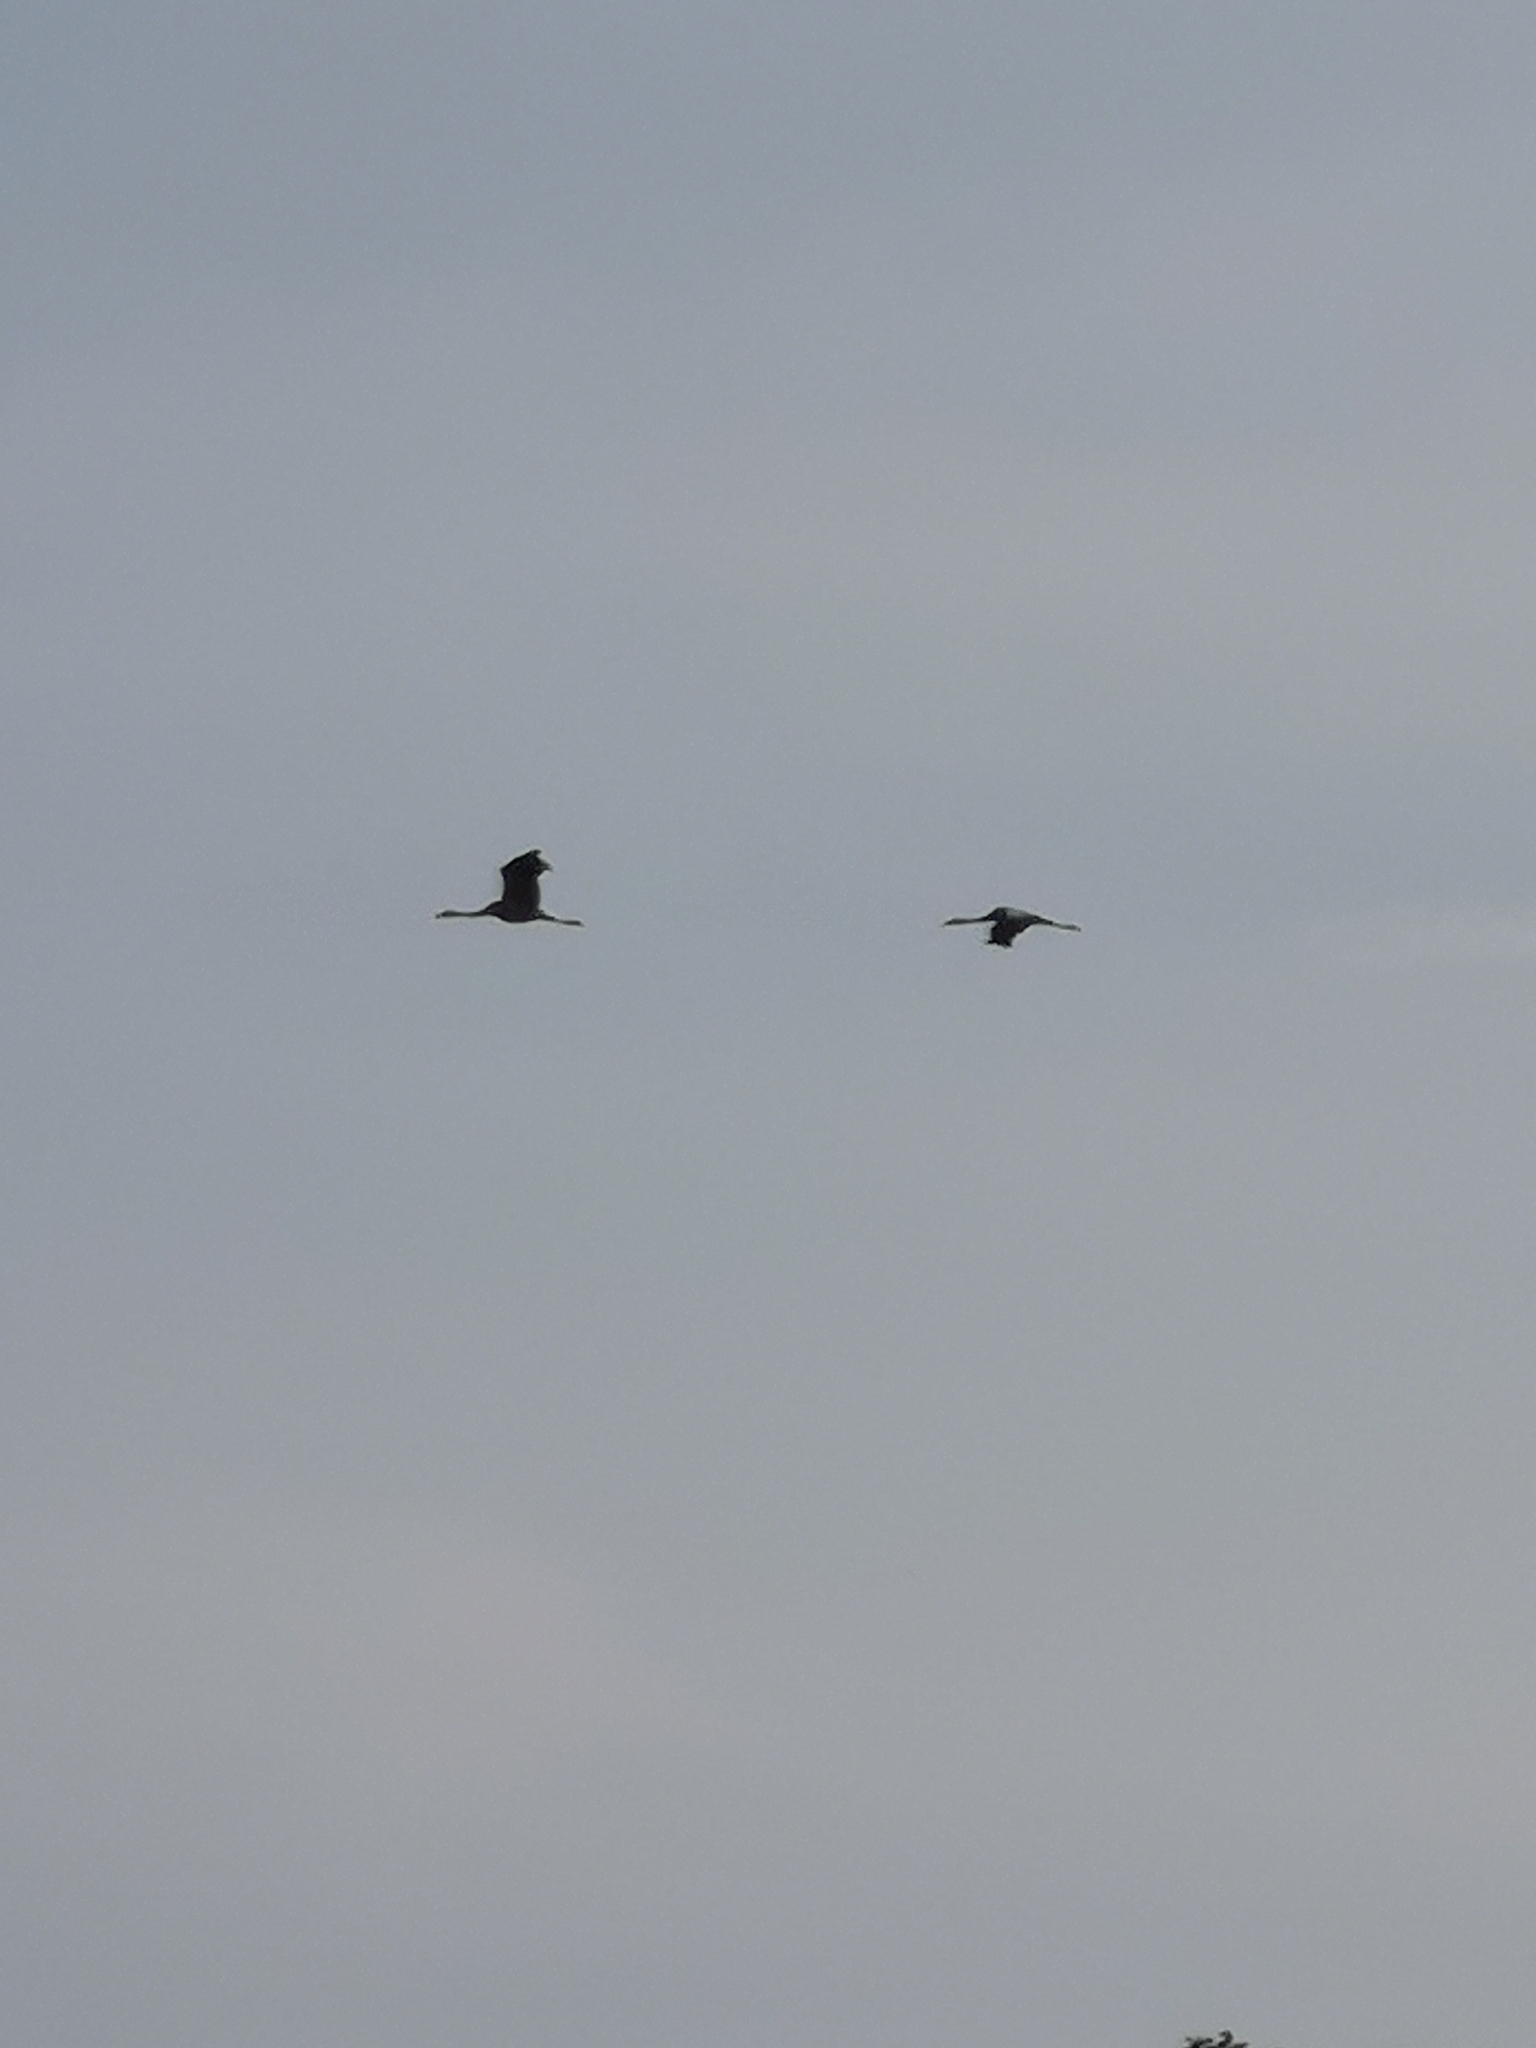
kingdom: Animalia
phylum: Chordata
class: Aves
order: Gruiformes
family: Gruidae
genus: Grus
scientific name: Grus grus
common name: Common crane
